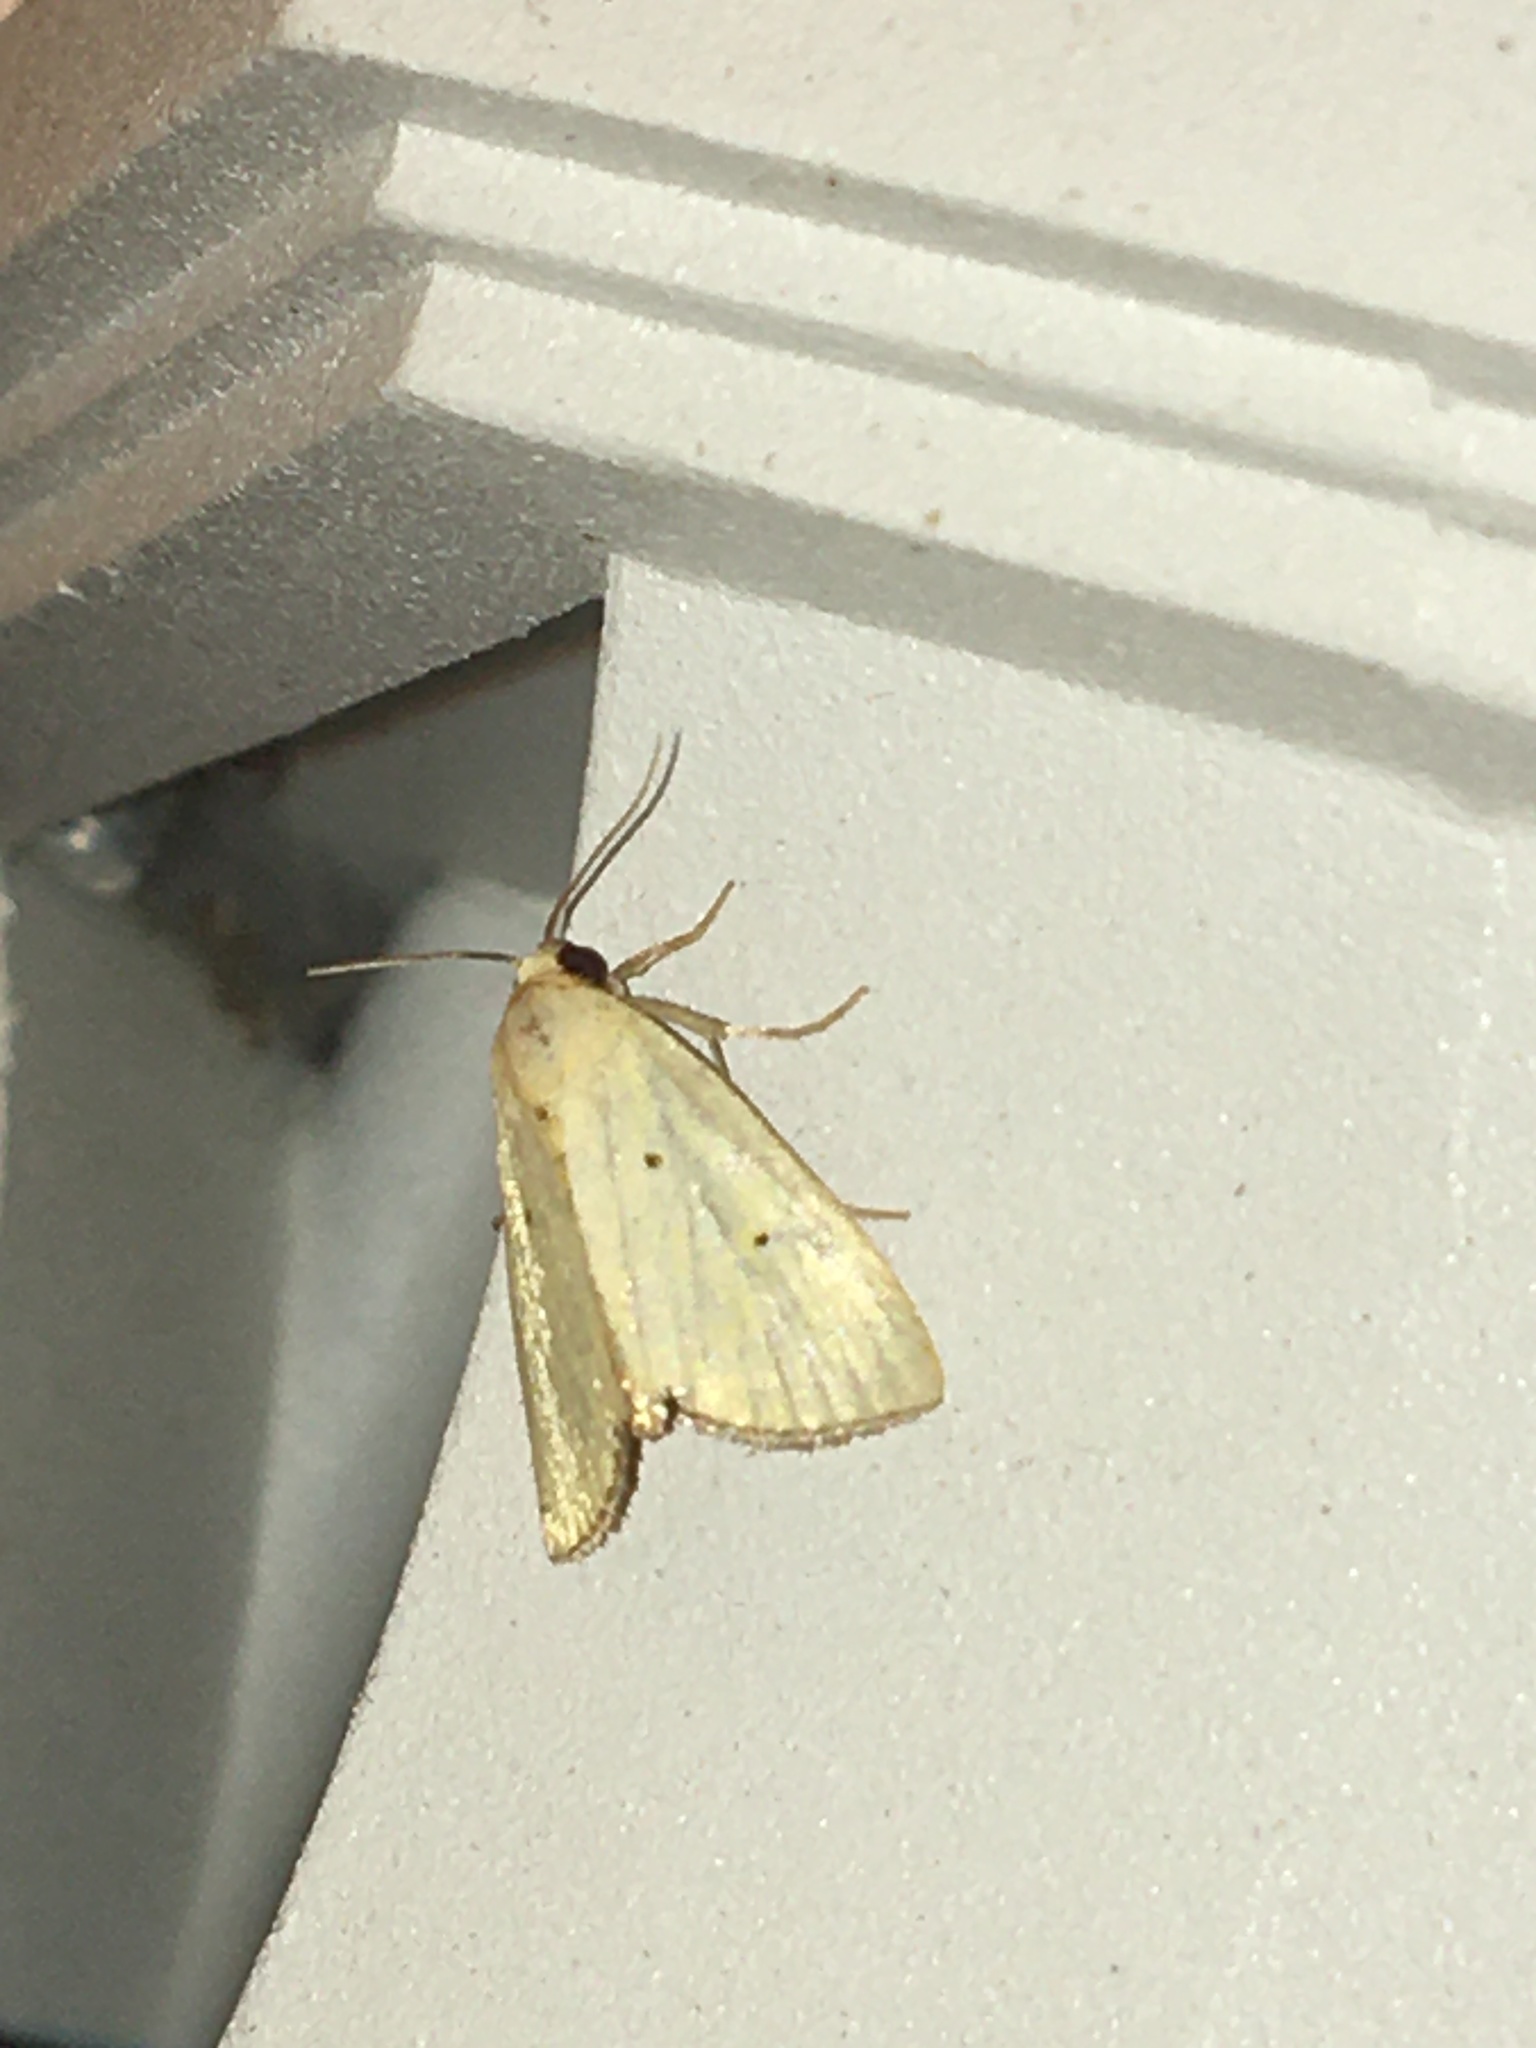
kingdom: Animalia
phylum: Arthropoda
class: Insecta
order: Lepidoptera
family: Noctuidae
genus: Marimatha
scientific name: Marimatha nigrofimbria
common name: Black-bordered lemon moth
